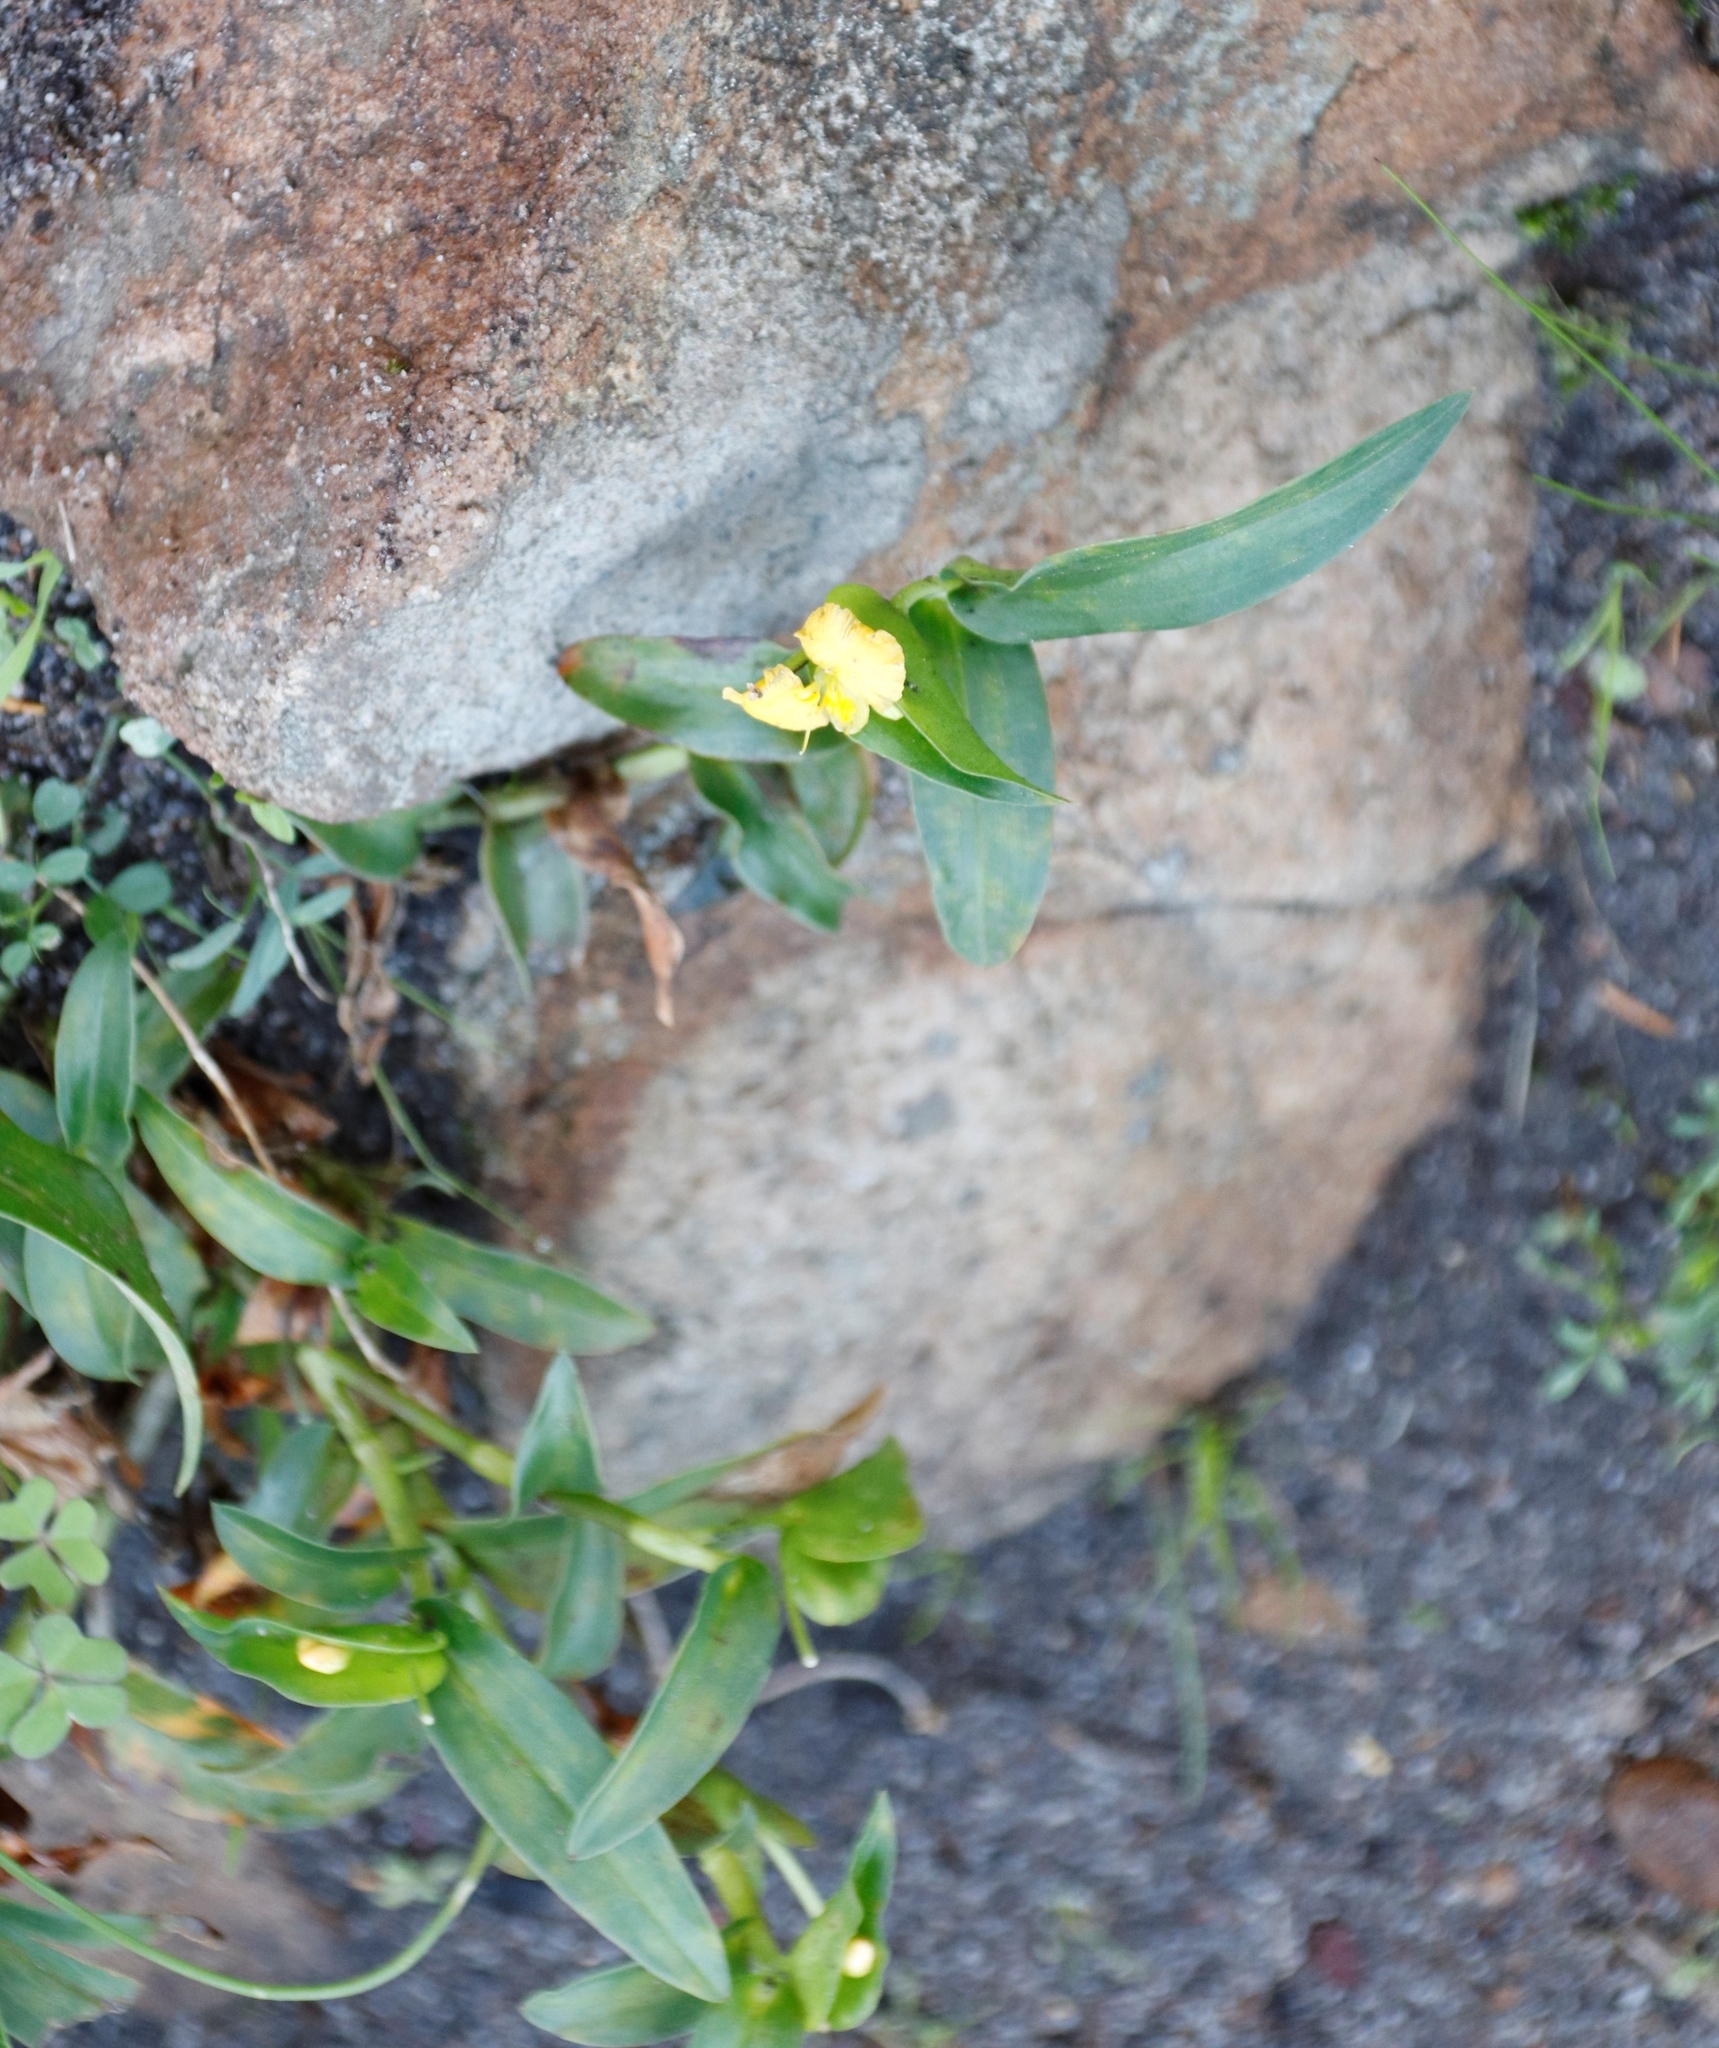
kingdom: Plantae
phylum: Tracheophyta
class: Liliopsida
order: Commelinales
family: Commelinaceae
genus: Commelina
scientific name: Commelina africana
